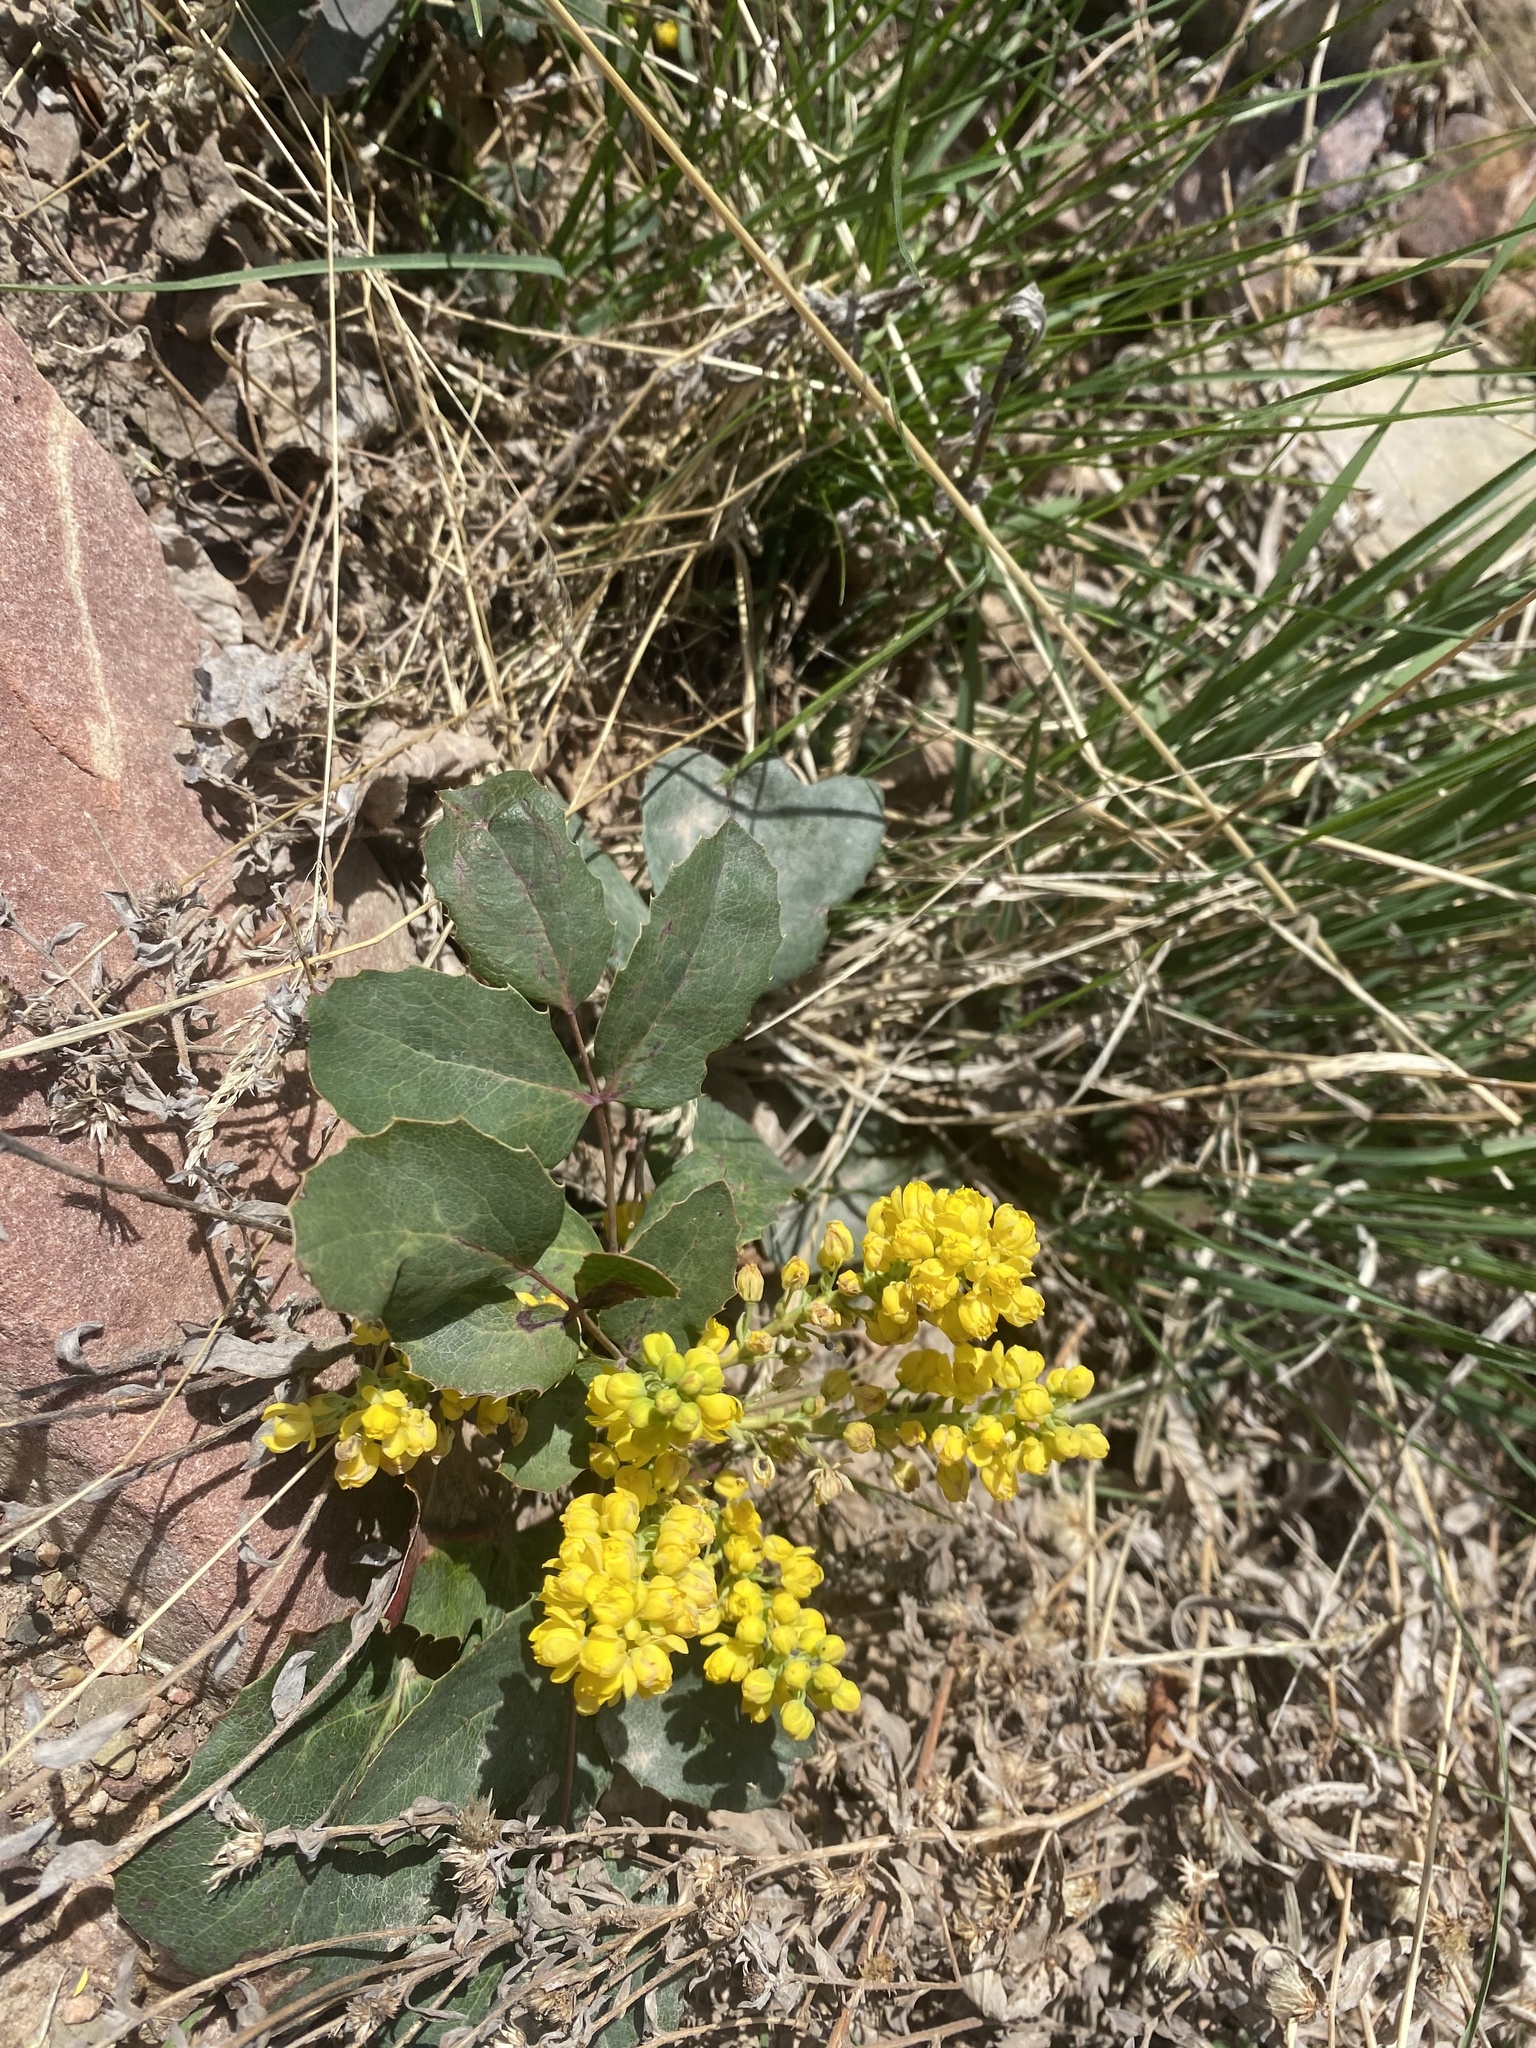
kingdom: Plantae
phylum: Tracheophyta
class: Magnoliopsida
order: Ranunculales
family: Berberidaceae
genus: Mahonia
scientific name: Mahonia repens
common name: Creeping oregon-grape
